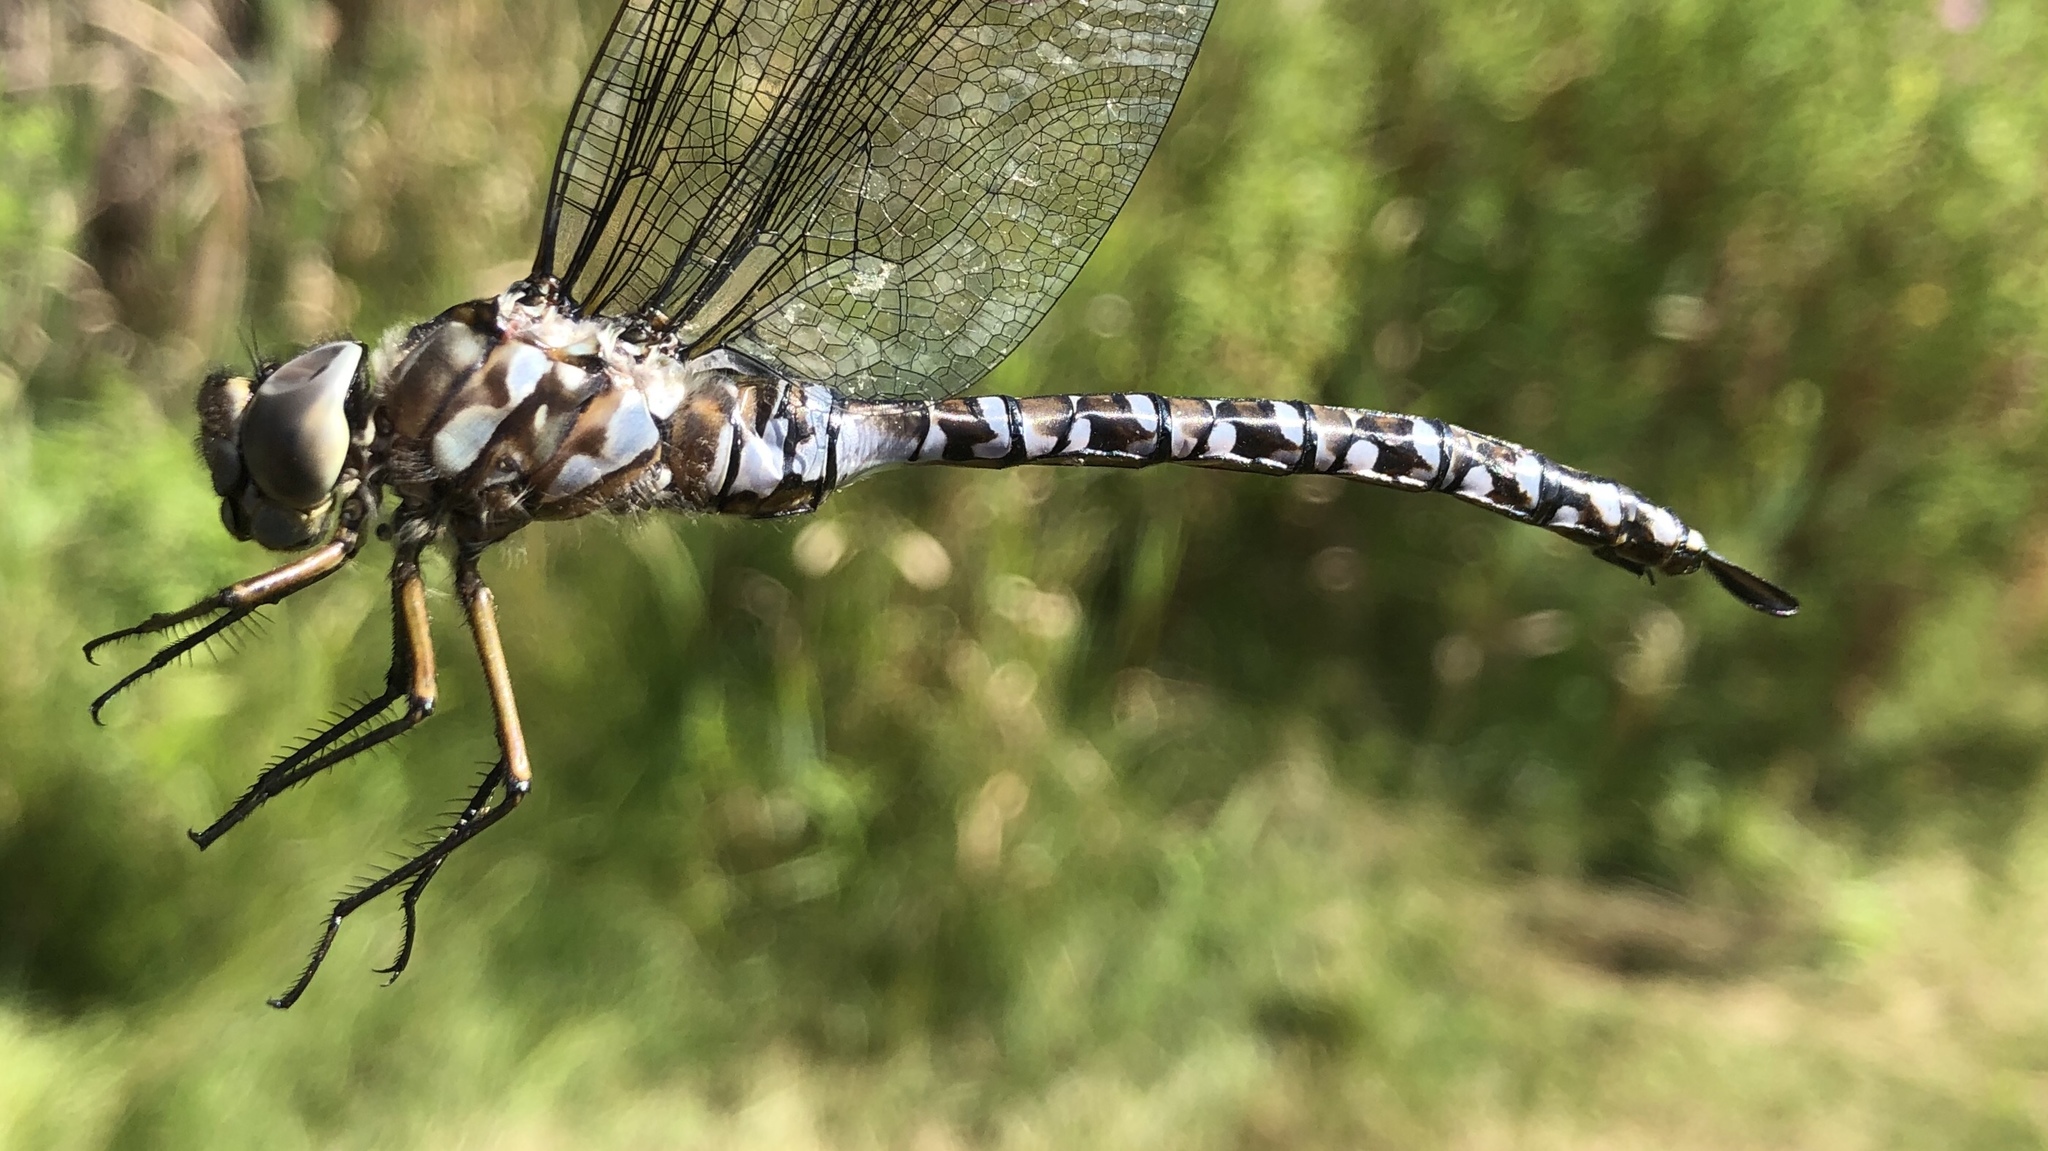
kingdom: Animalia
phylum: Arthropoda
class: Insecta
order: Odonata
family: Aeshnidae
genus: Aeshna
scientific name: Aeshna eremita
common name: Lake darner
